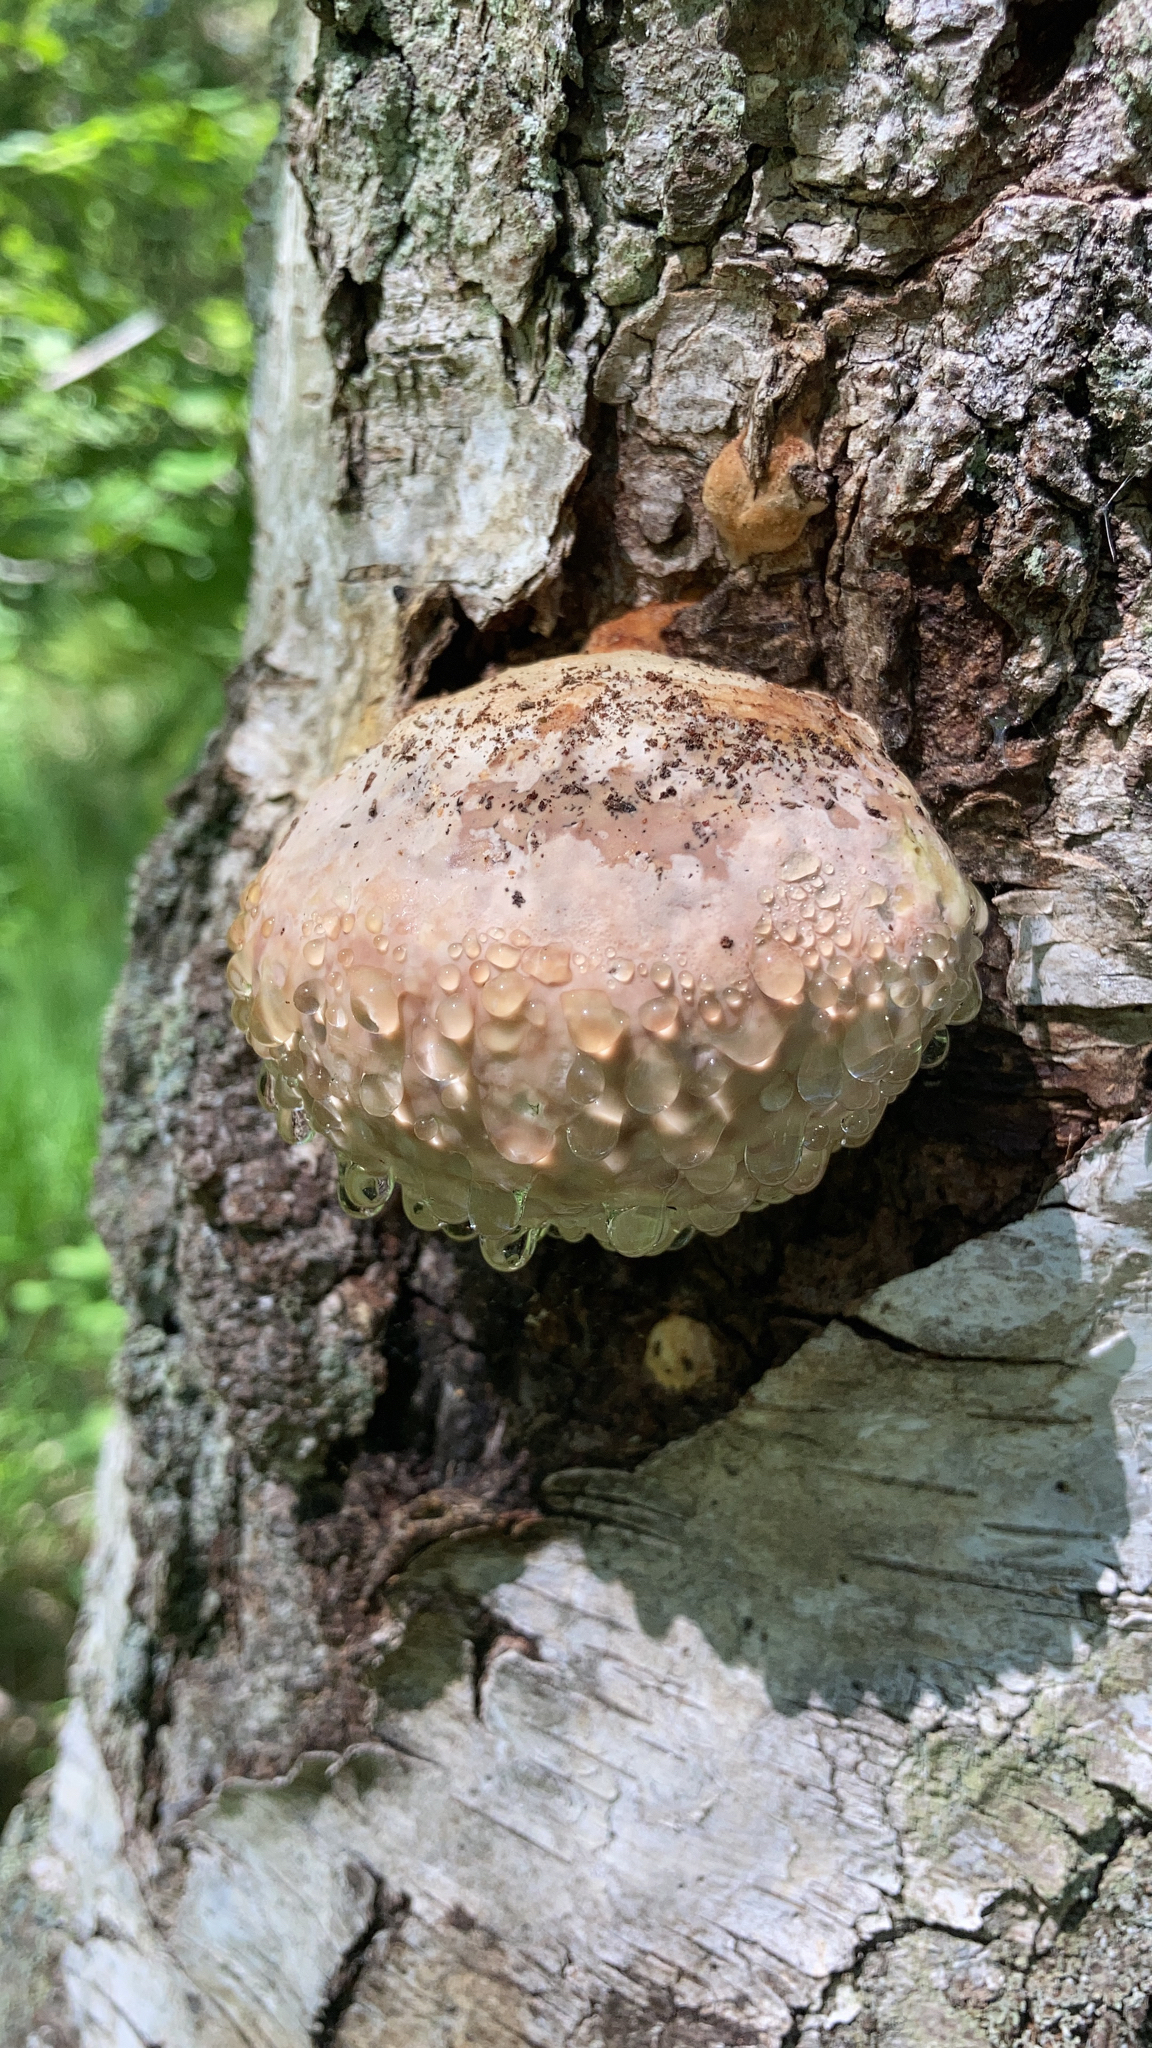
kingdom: Fungi
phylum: Basidiomycota
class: Agaricomycetes
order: Polyporales
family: Fomitopsidaceae
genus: Fomitopsis
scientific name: Fomitopsis pinicola
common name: Red-belted bracket
